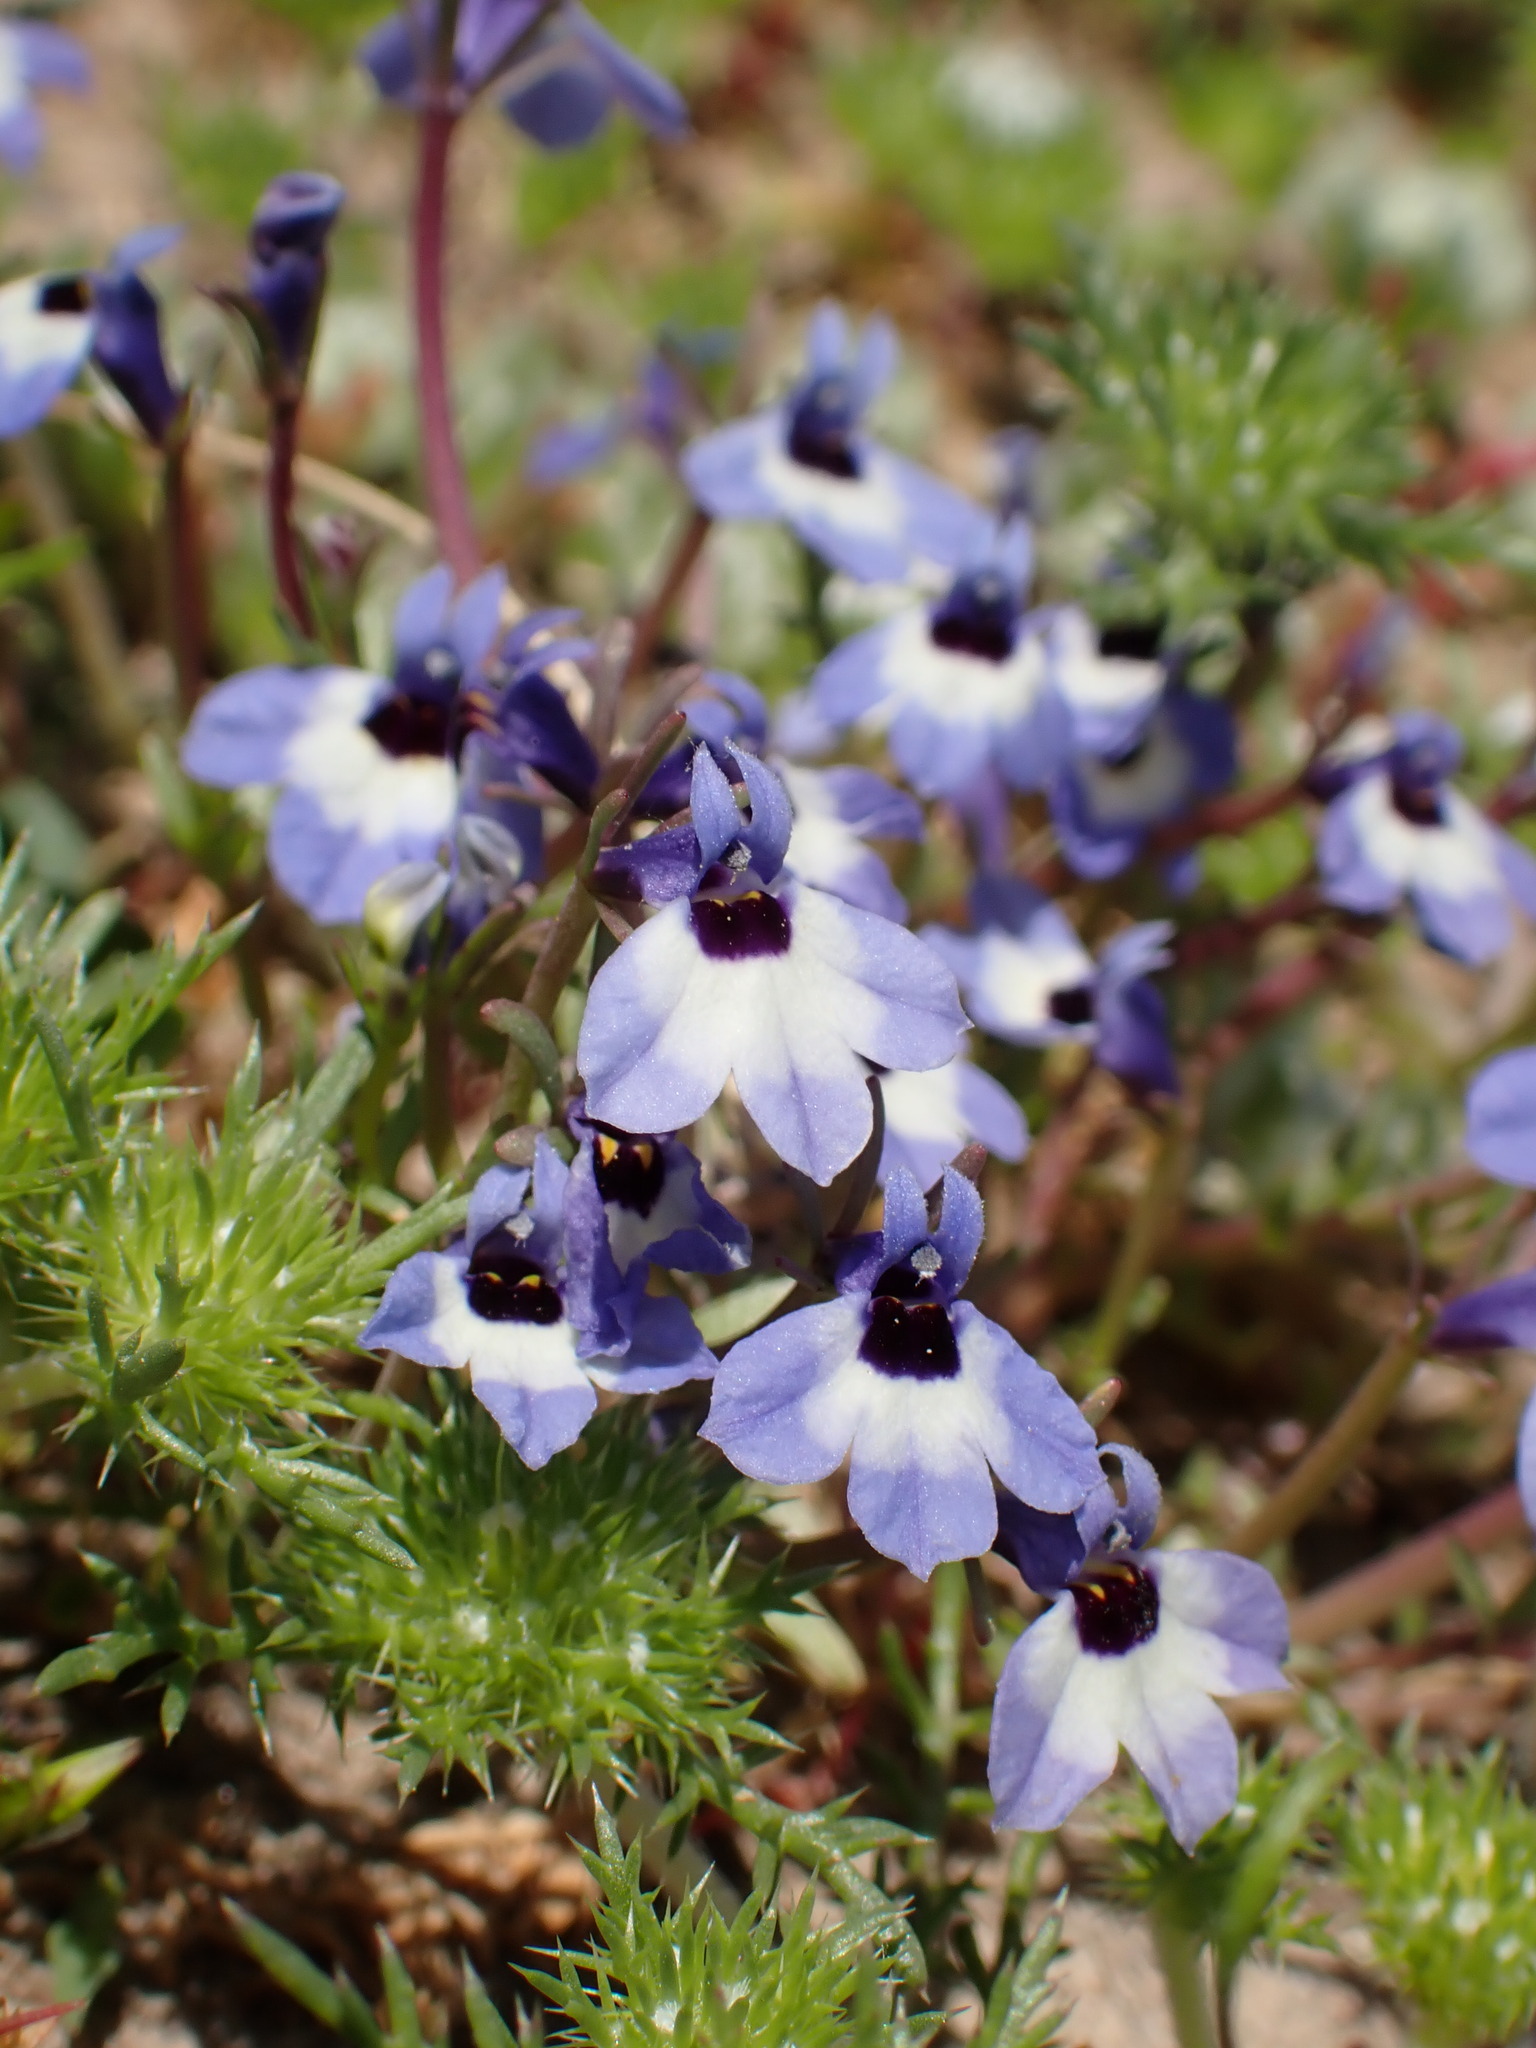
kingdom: Plantae
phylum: Tracheophyta
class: Magnoliopsida
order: Asterales
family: Campanulaceae
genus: Downingia
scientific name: Downingia concolor
